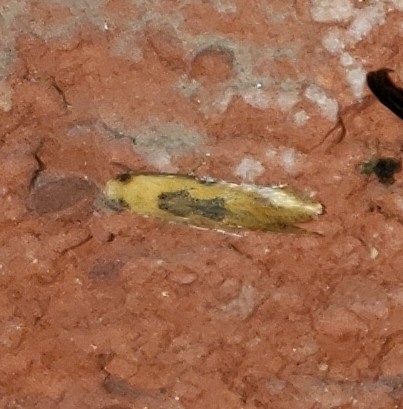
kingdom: Animalia
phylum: Arthropoda
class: Insecta
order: Lepidoptera
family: Meessiidae
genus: Hybroma
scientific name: Hybroma servulella
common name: Yellow wave moth
